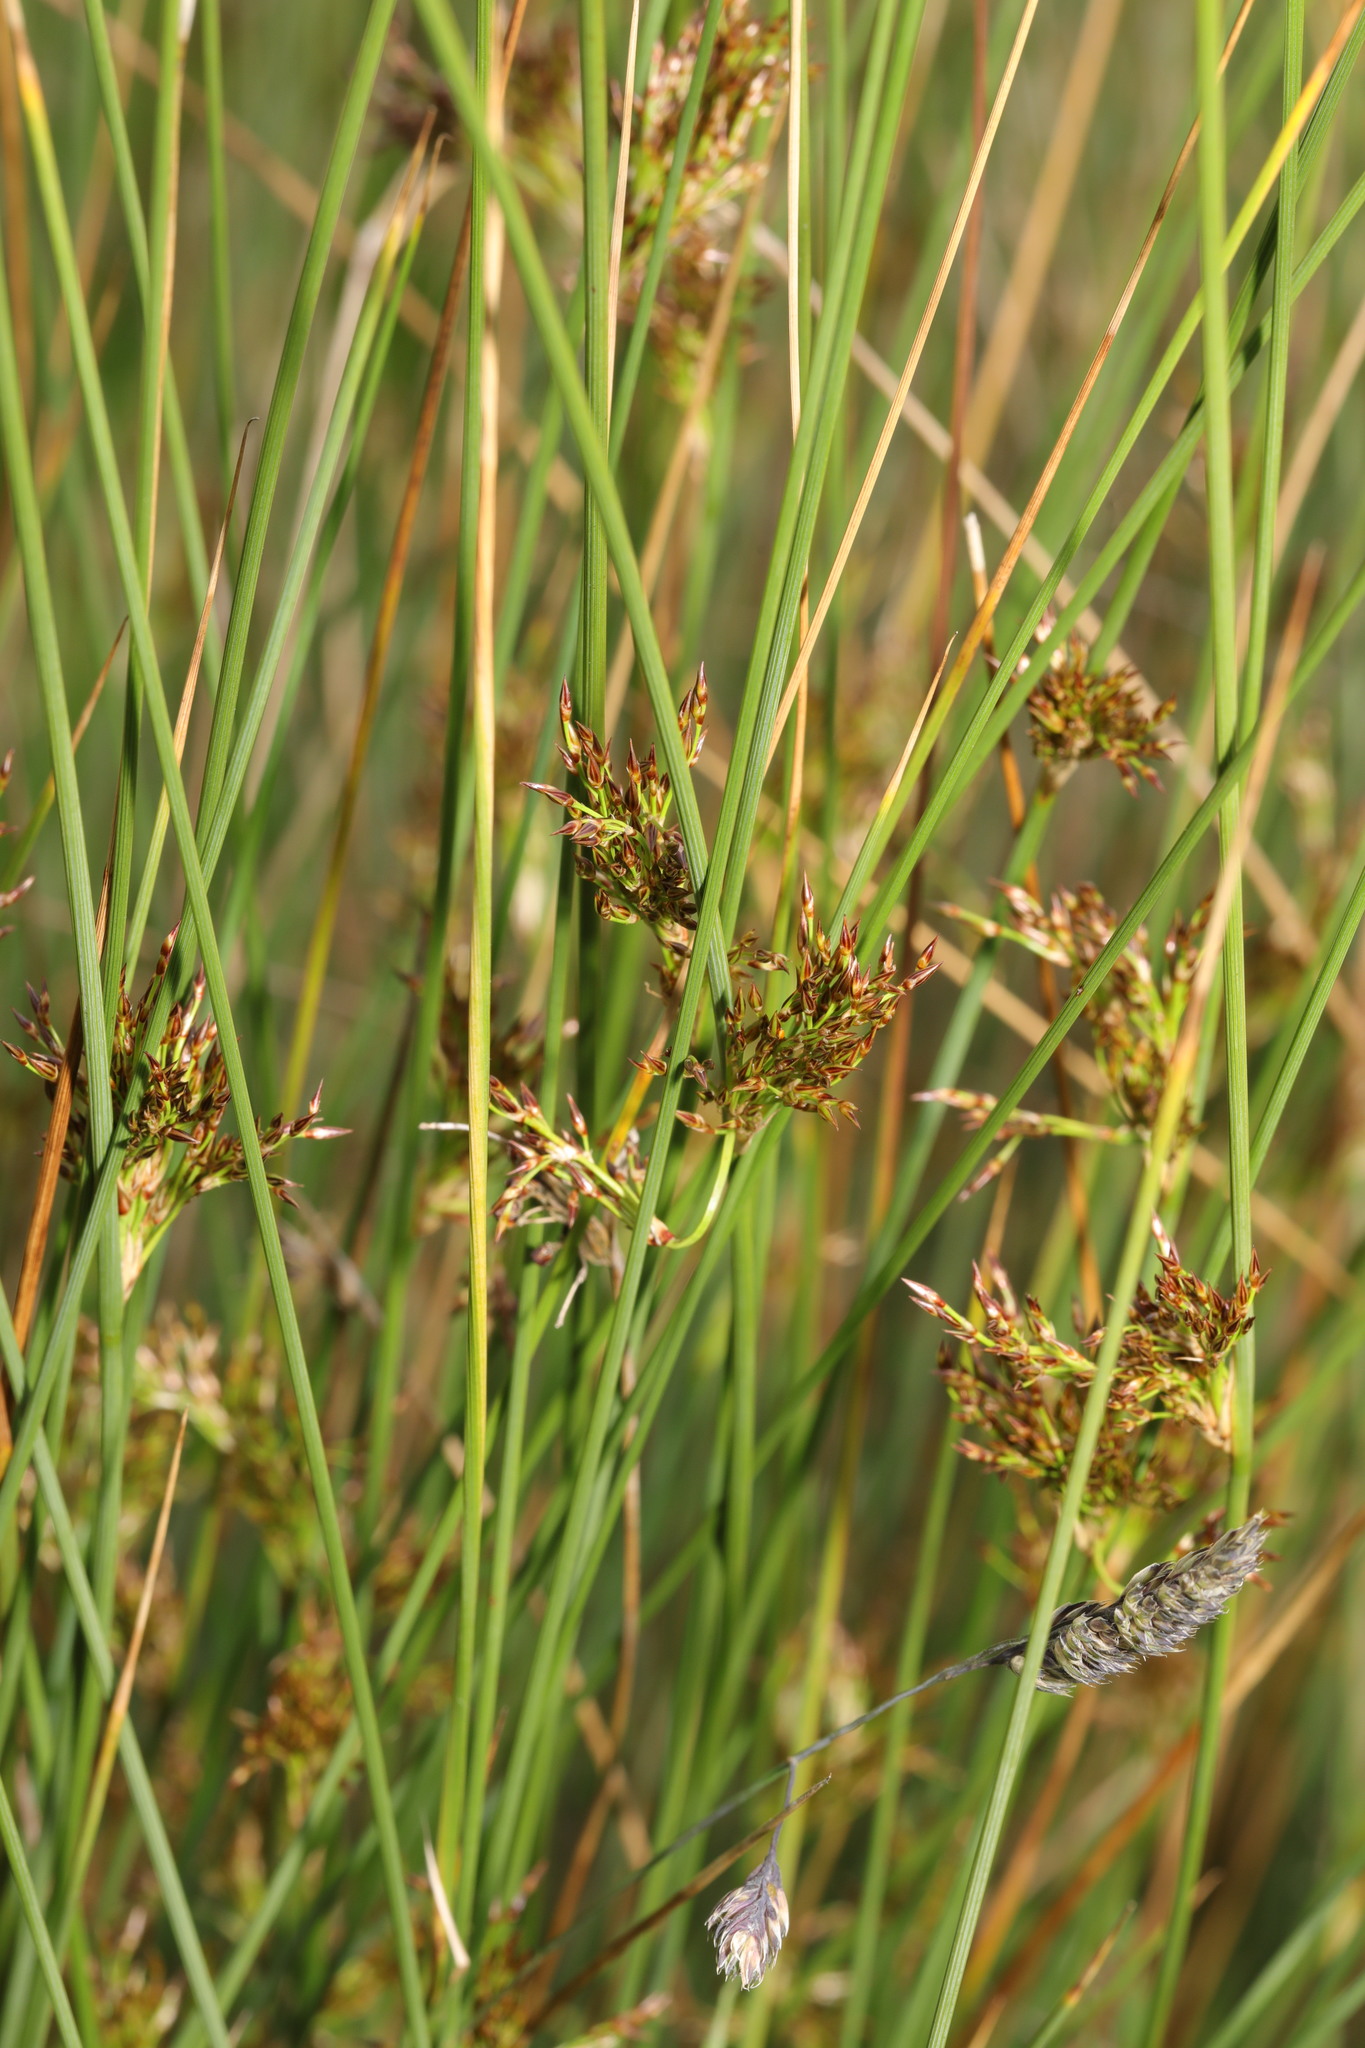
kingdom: Plantae
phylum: Tracheophyta
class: Liliopsida
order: Poales
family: Juncaceae
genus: Juncus
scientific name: Juncus inflexus
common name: Hard rush
